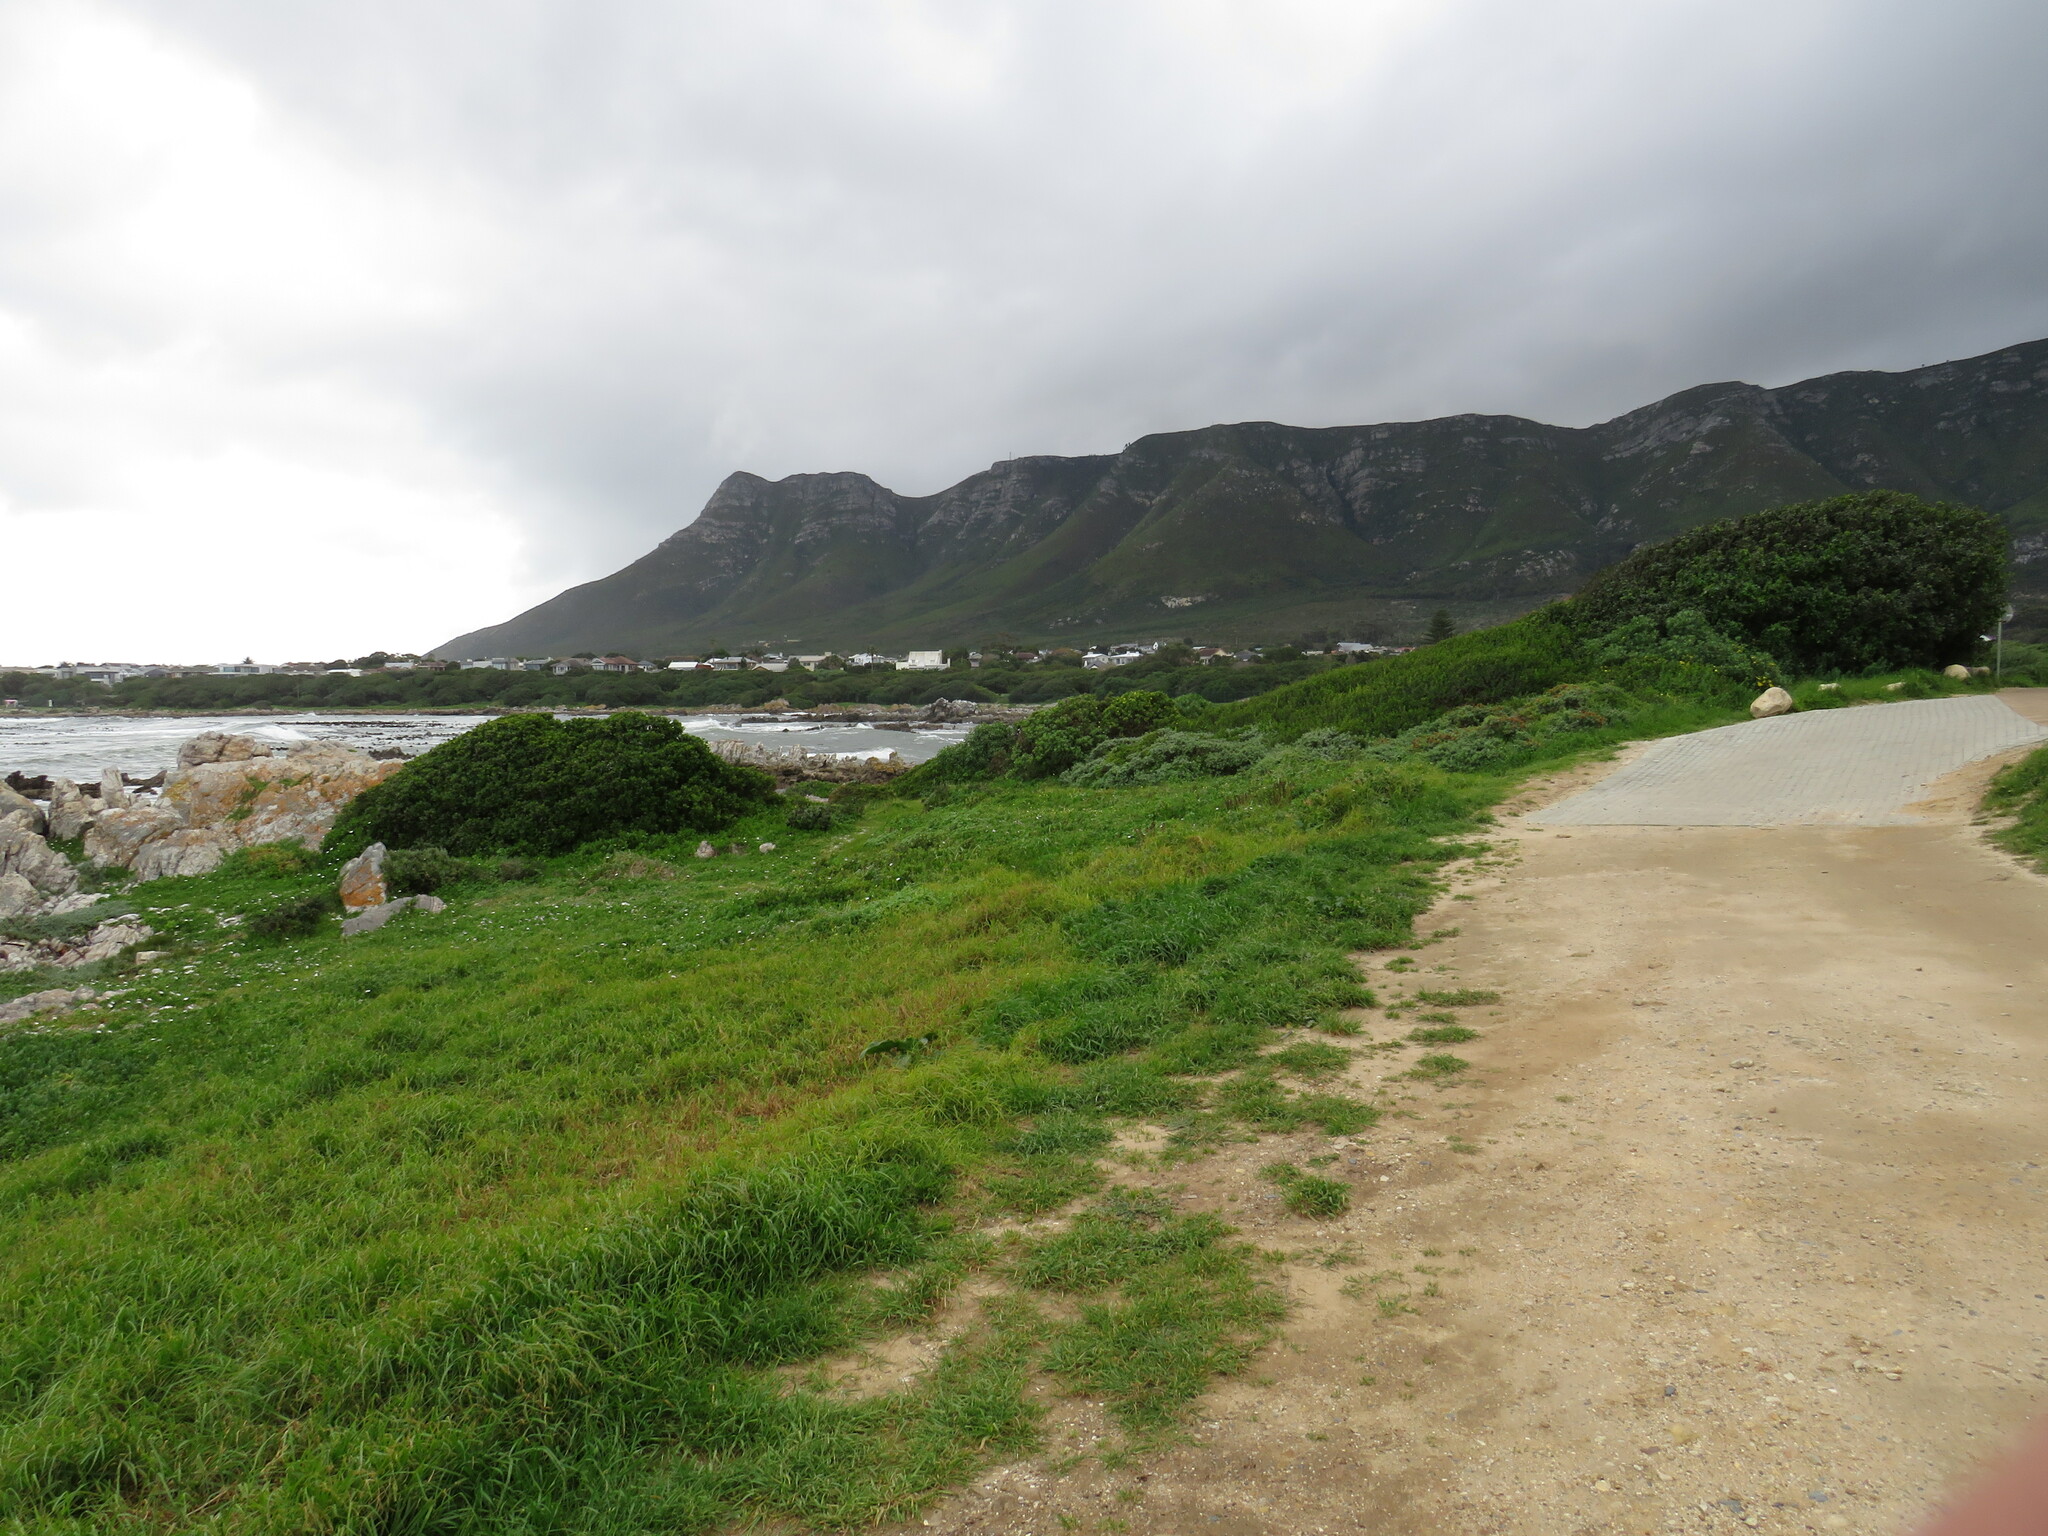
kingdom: Plantae
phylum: Tracheophyta
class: Magnoliopsida
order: Saxifragales
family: Crassulaceae
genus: Cotyledon
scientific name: Cotyledon orbiculata
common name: Pig's ear
